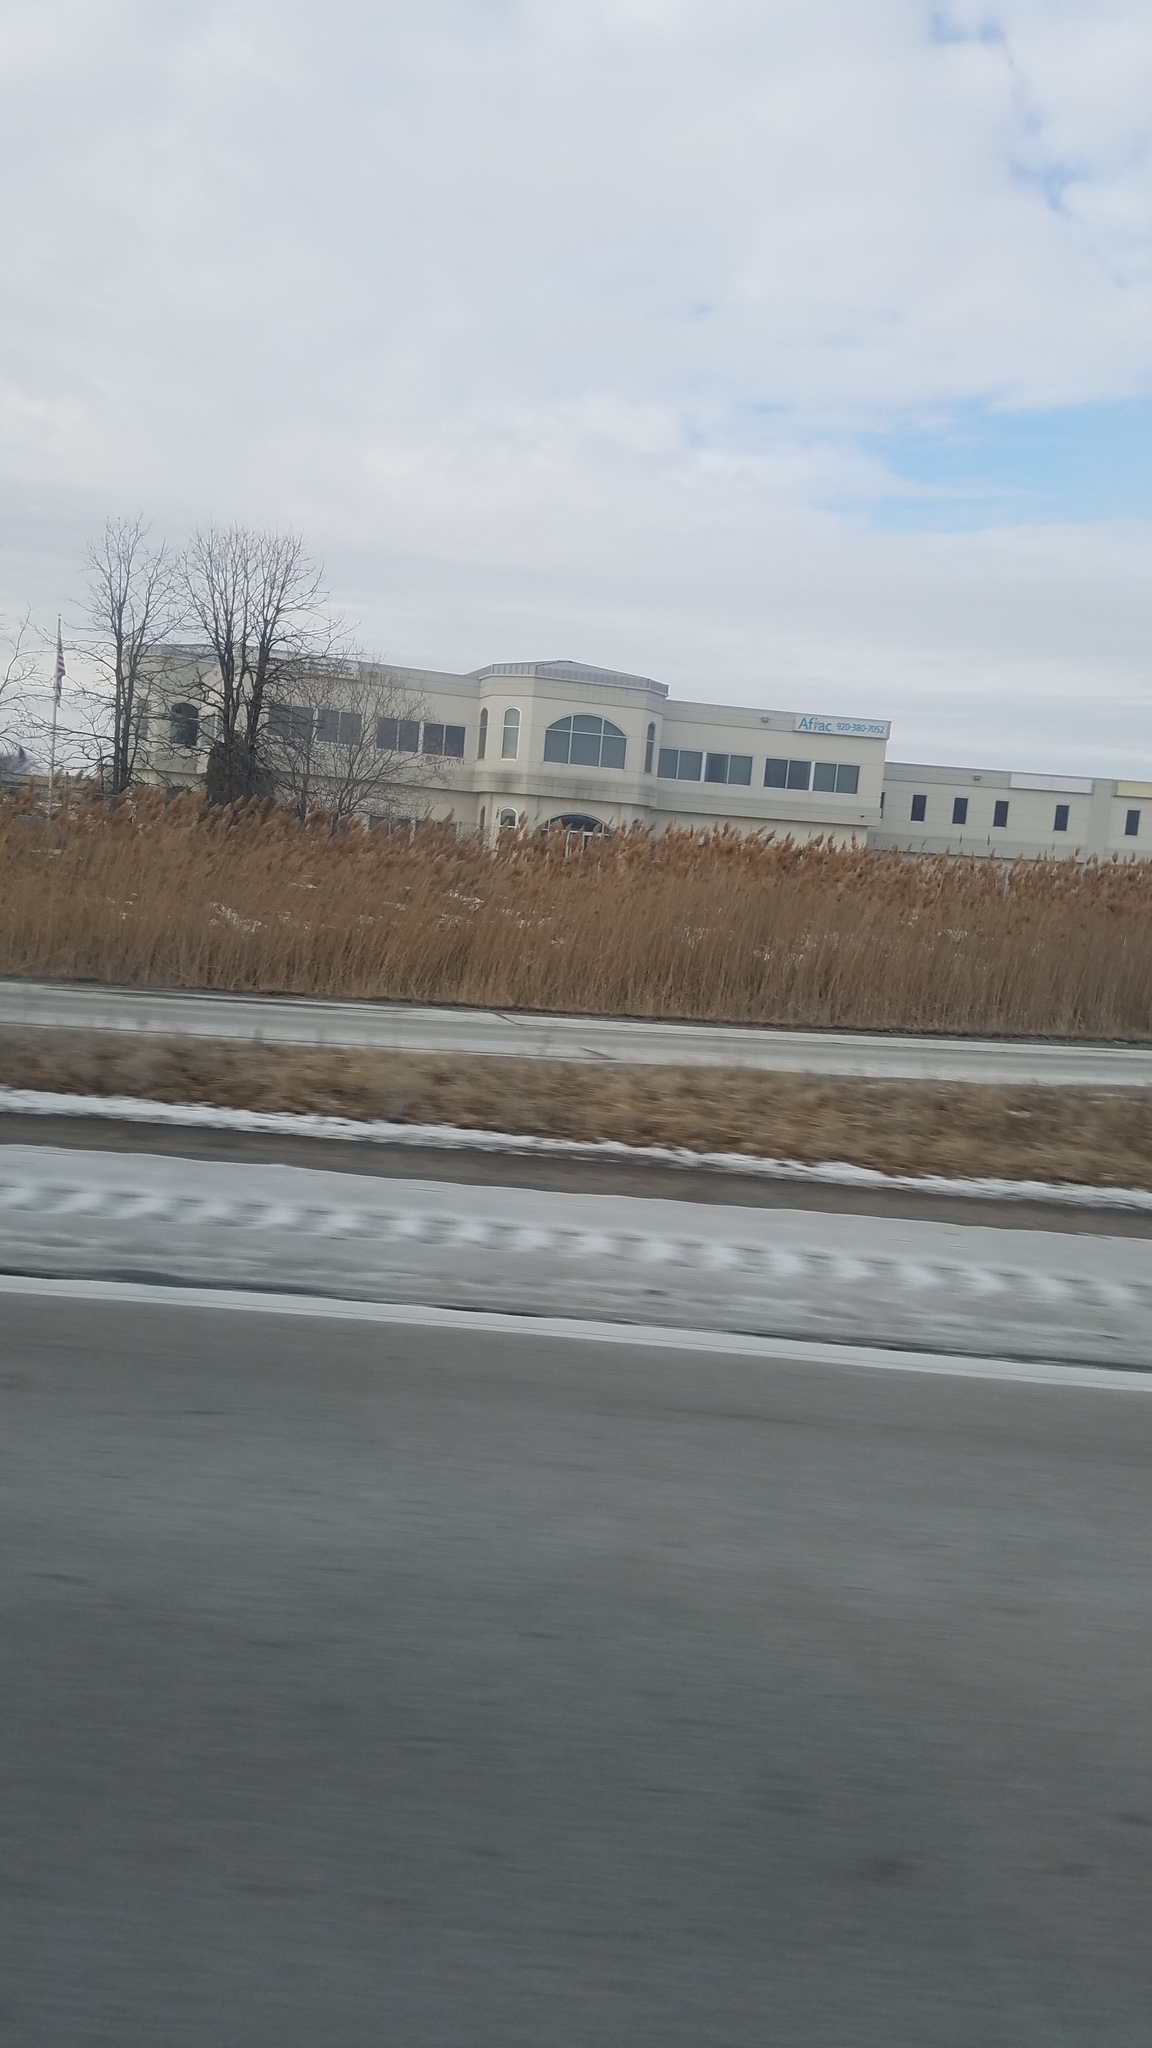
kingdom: Plantae
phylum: Tracheophyta
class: Liliopsida
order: Poales
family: Poaceae
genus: Phragmites
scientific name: Phragmites australis
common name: Common reed
